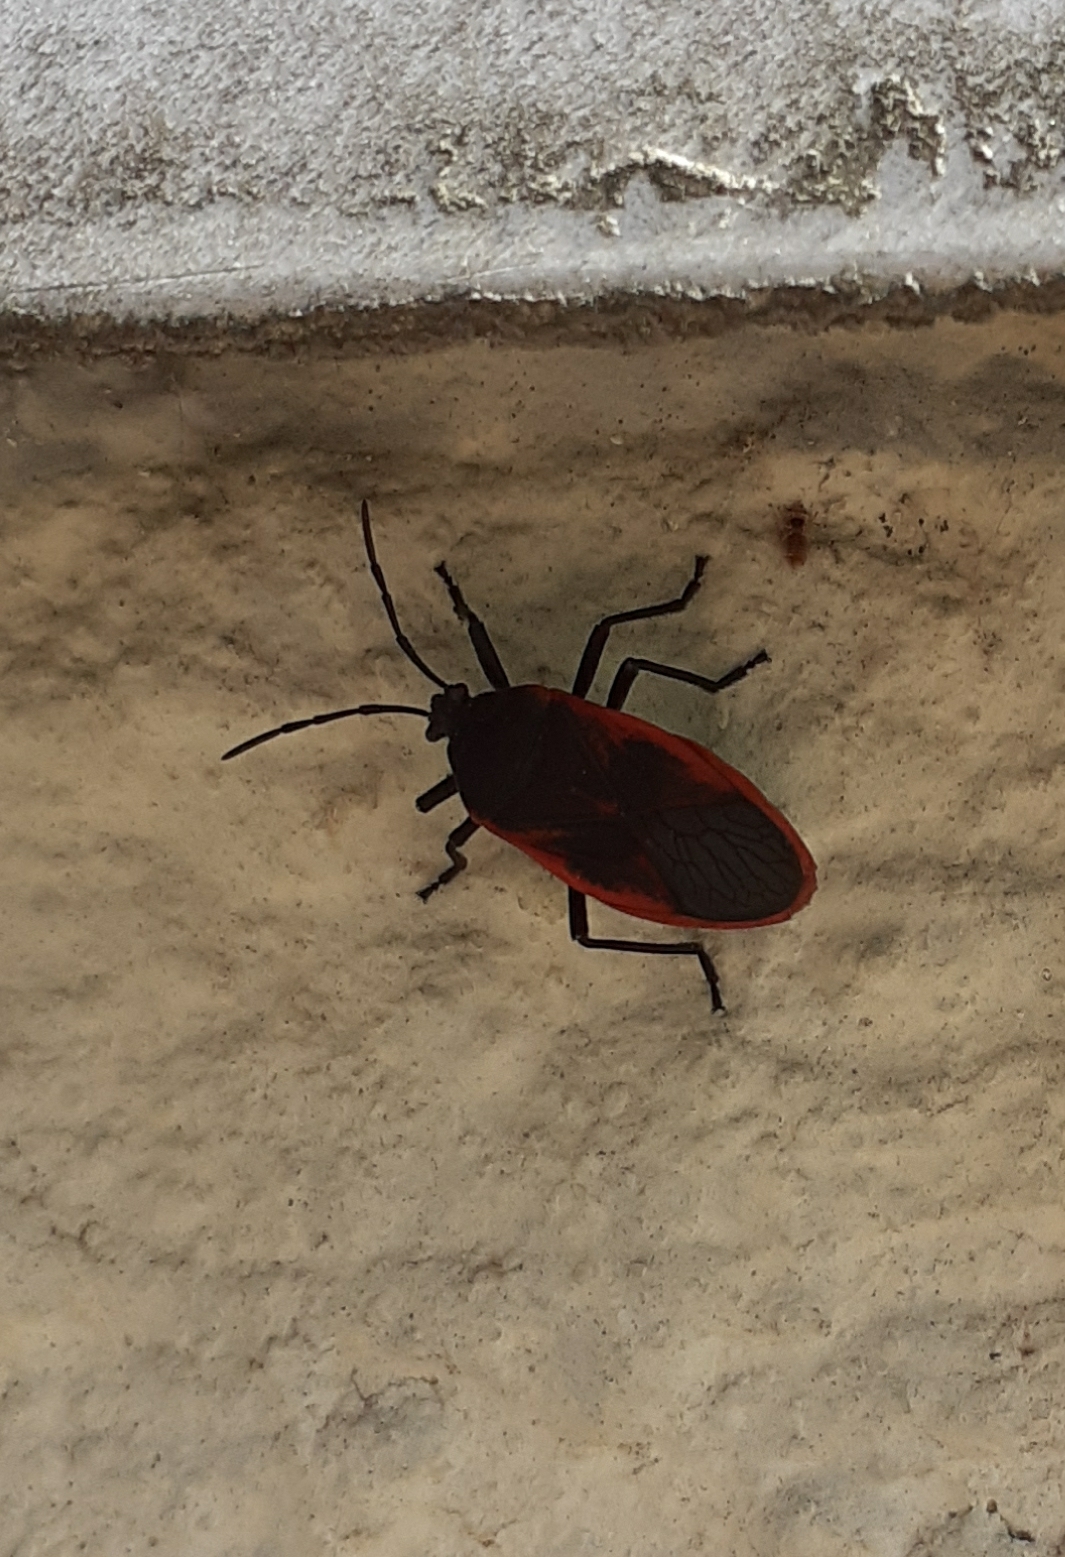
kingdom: Animalia
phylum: Arthropoda
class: Insecta
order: Hemiptera
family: Largidae
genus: Largus
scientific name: Largus rufipennis
